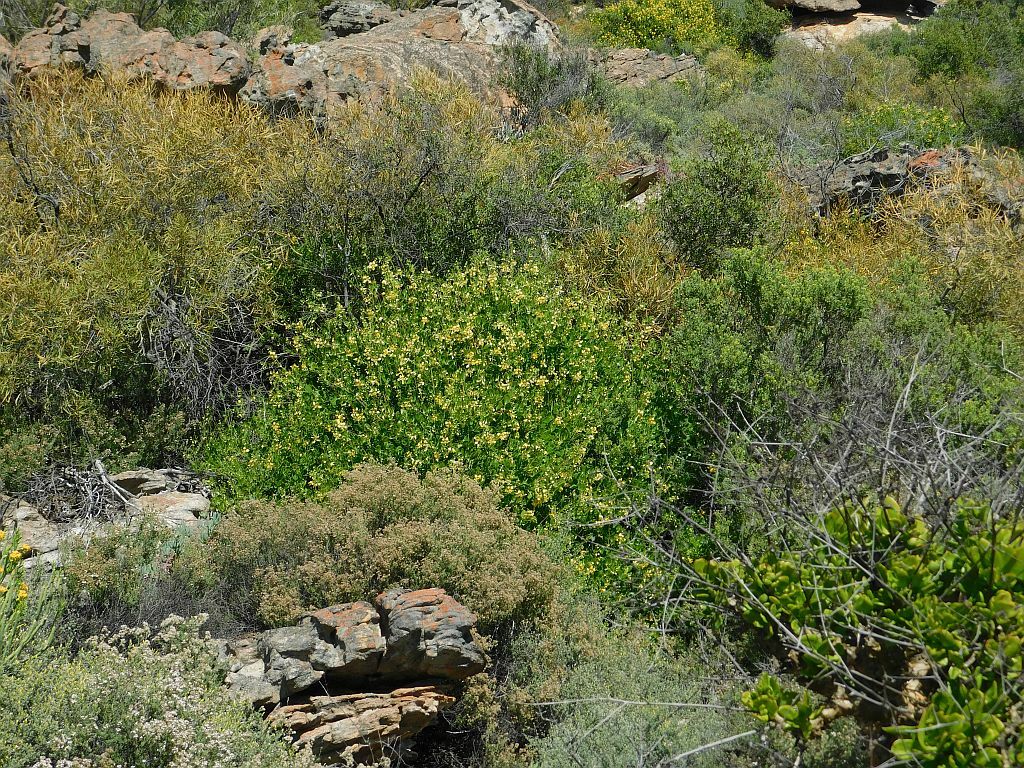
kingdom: Plantae
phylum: Tracheophyta
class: Magnoliopsida
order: Zygophyllales
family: Zygophyllaceae
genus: Roepera
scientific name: Roepera foetida
